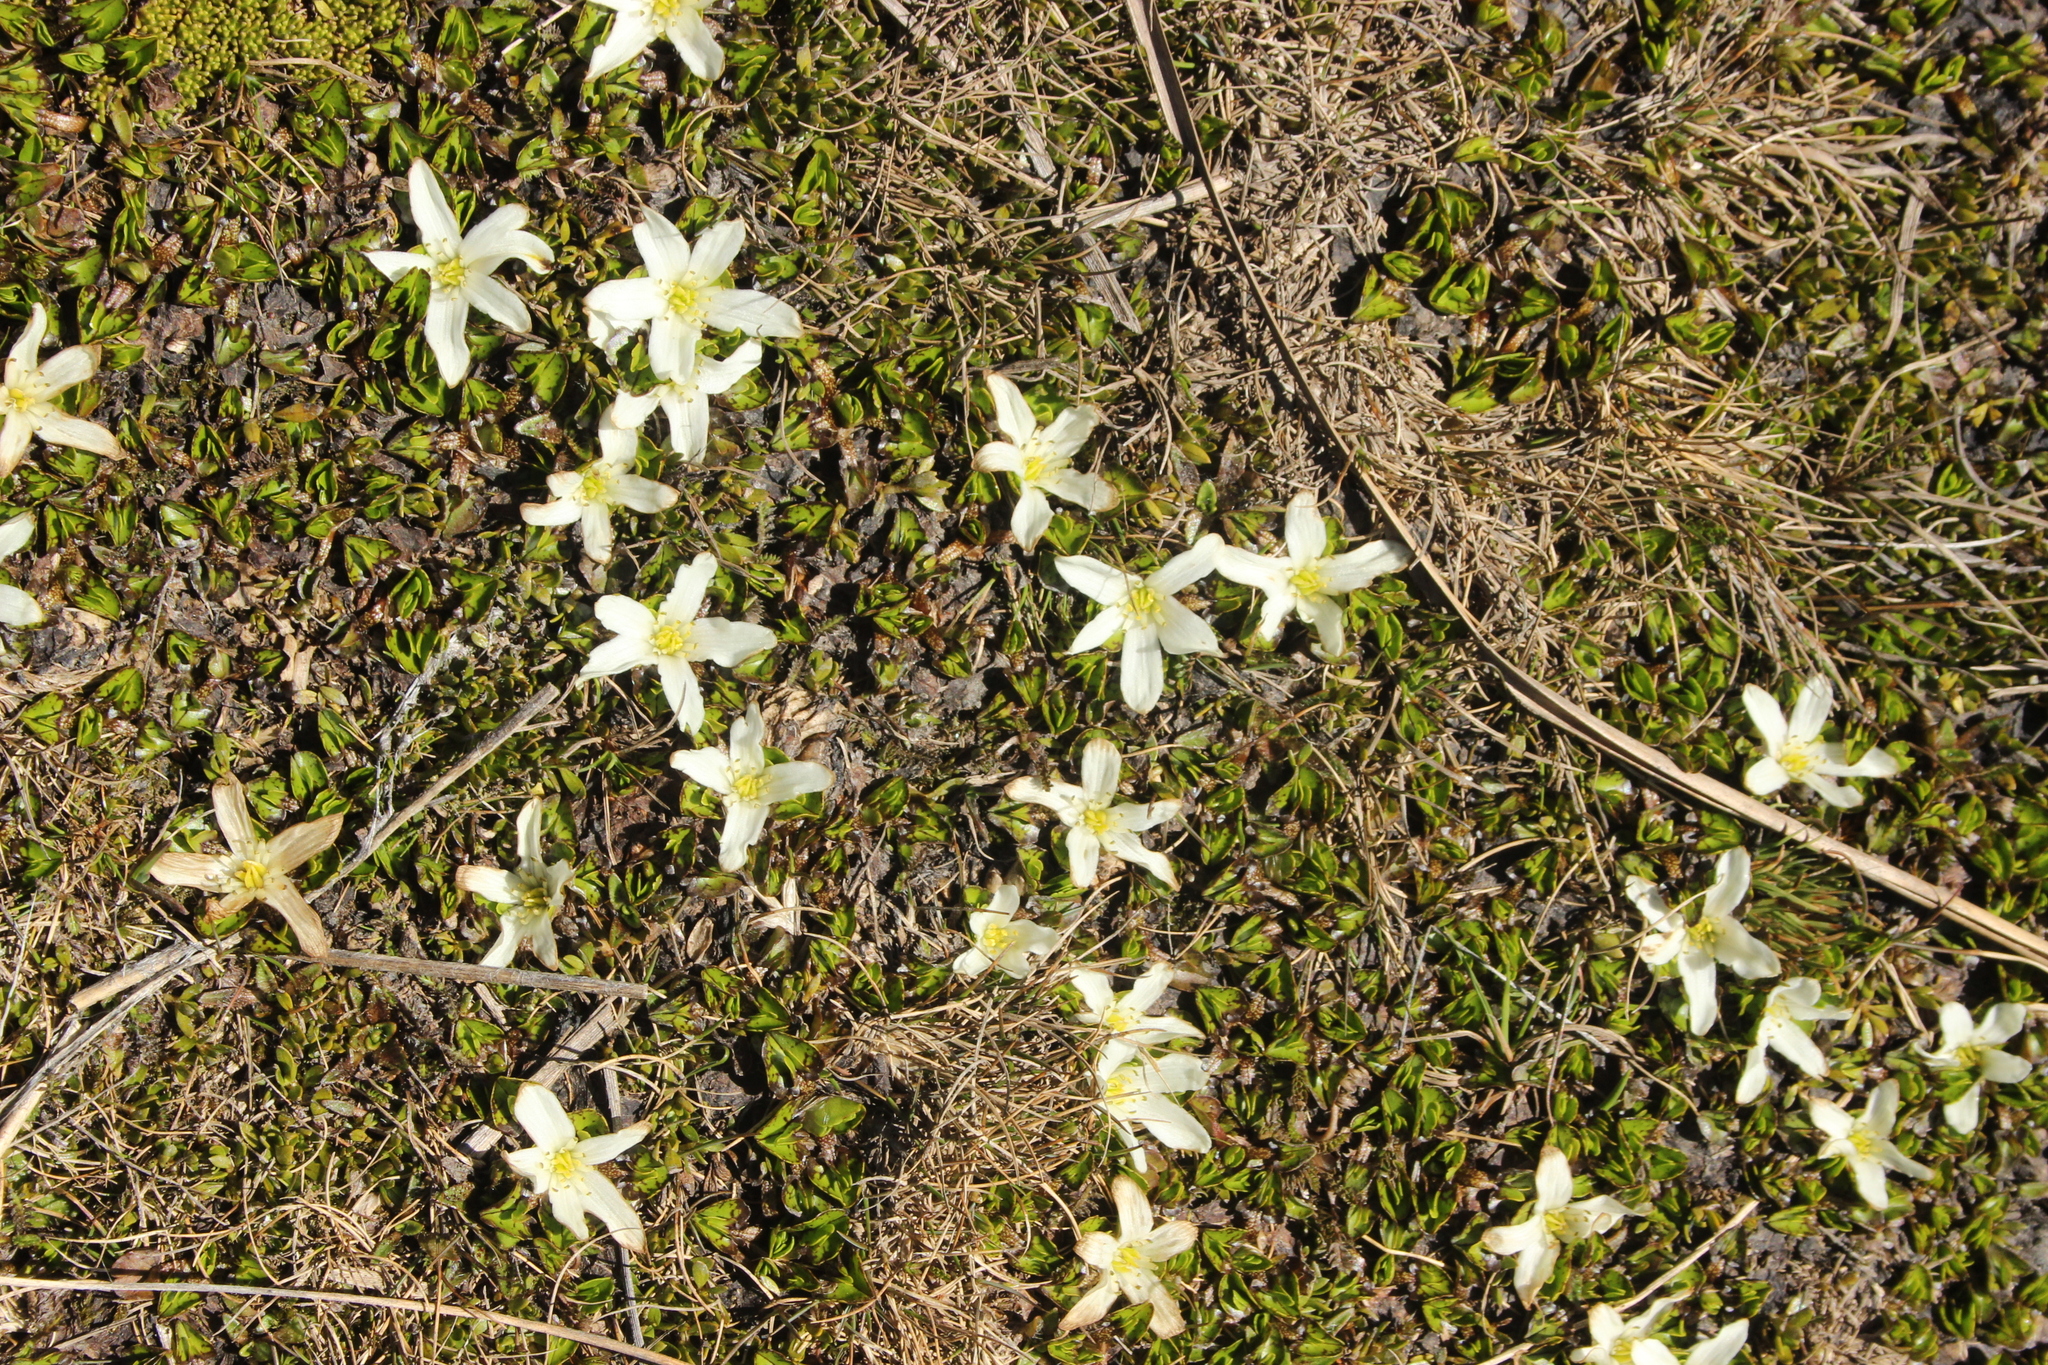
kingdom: Plantae
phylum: Tracheophyta
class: Magnoliopsida
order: Ranunculales
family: Ranunculaceae
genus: Caltha
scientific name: Caltha obtusa
